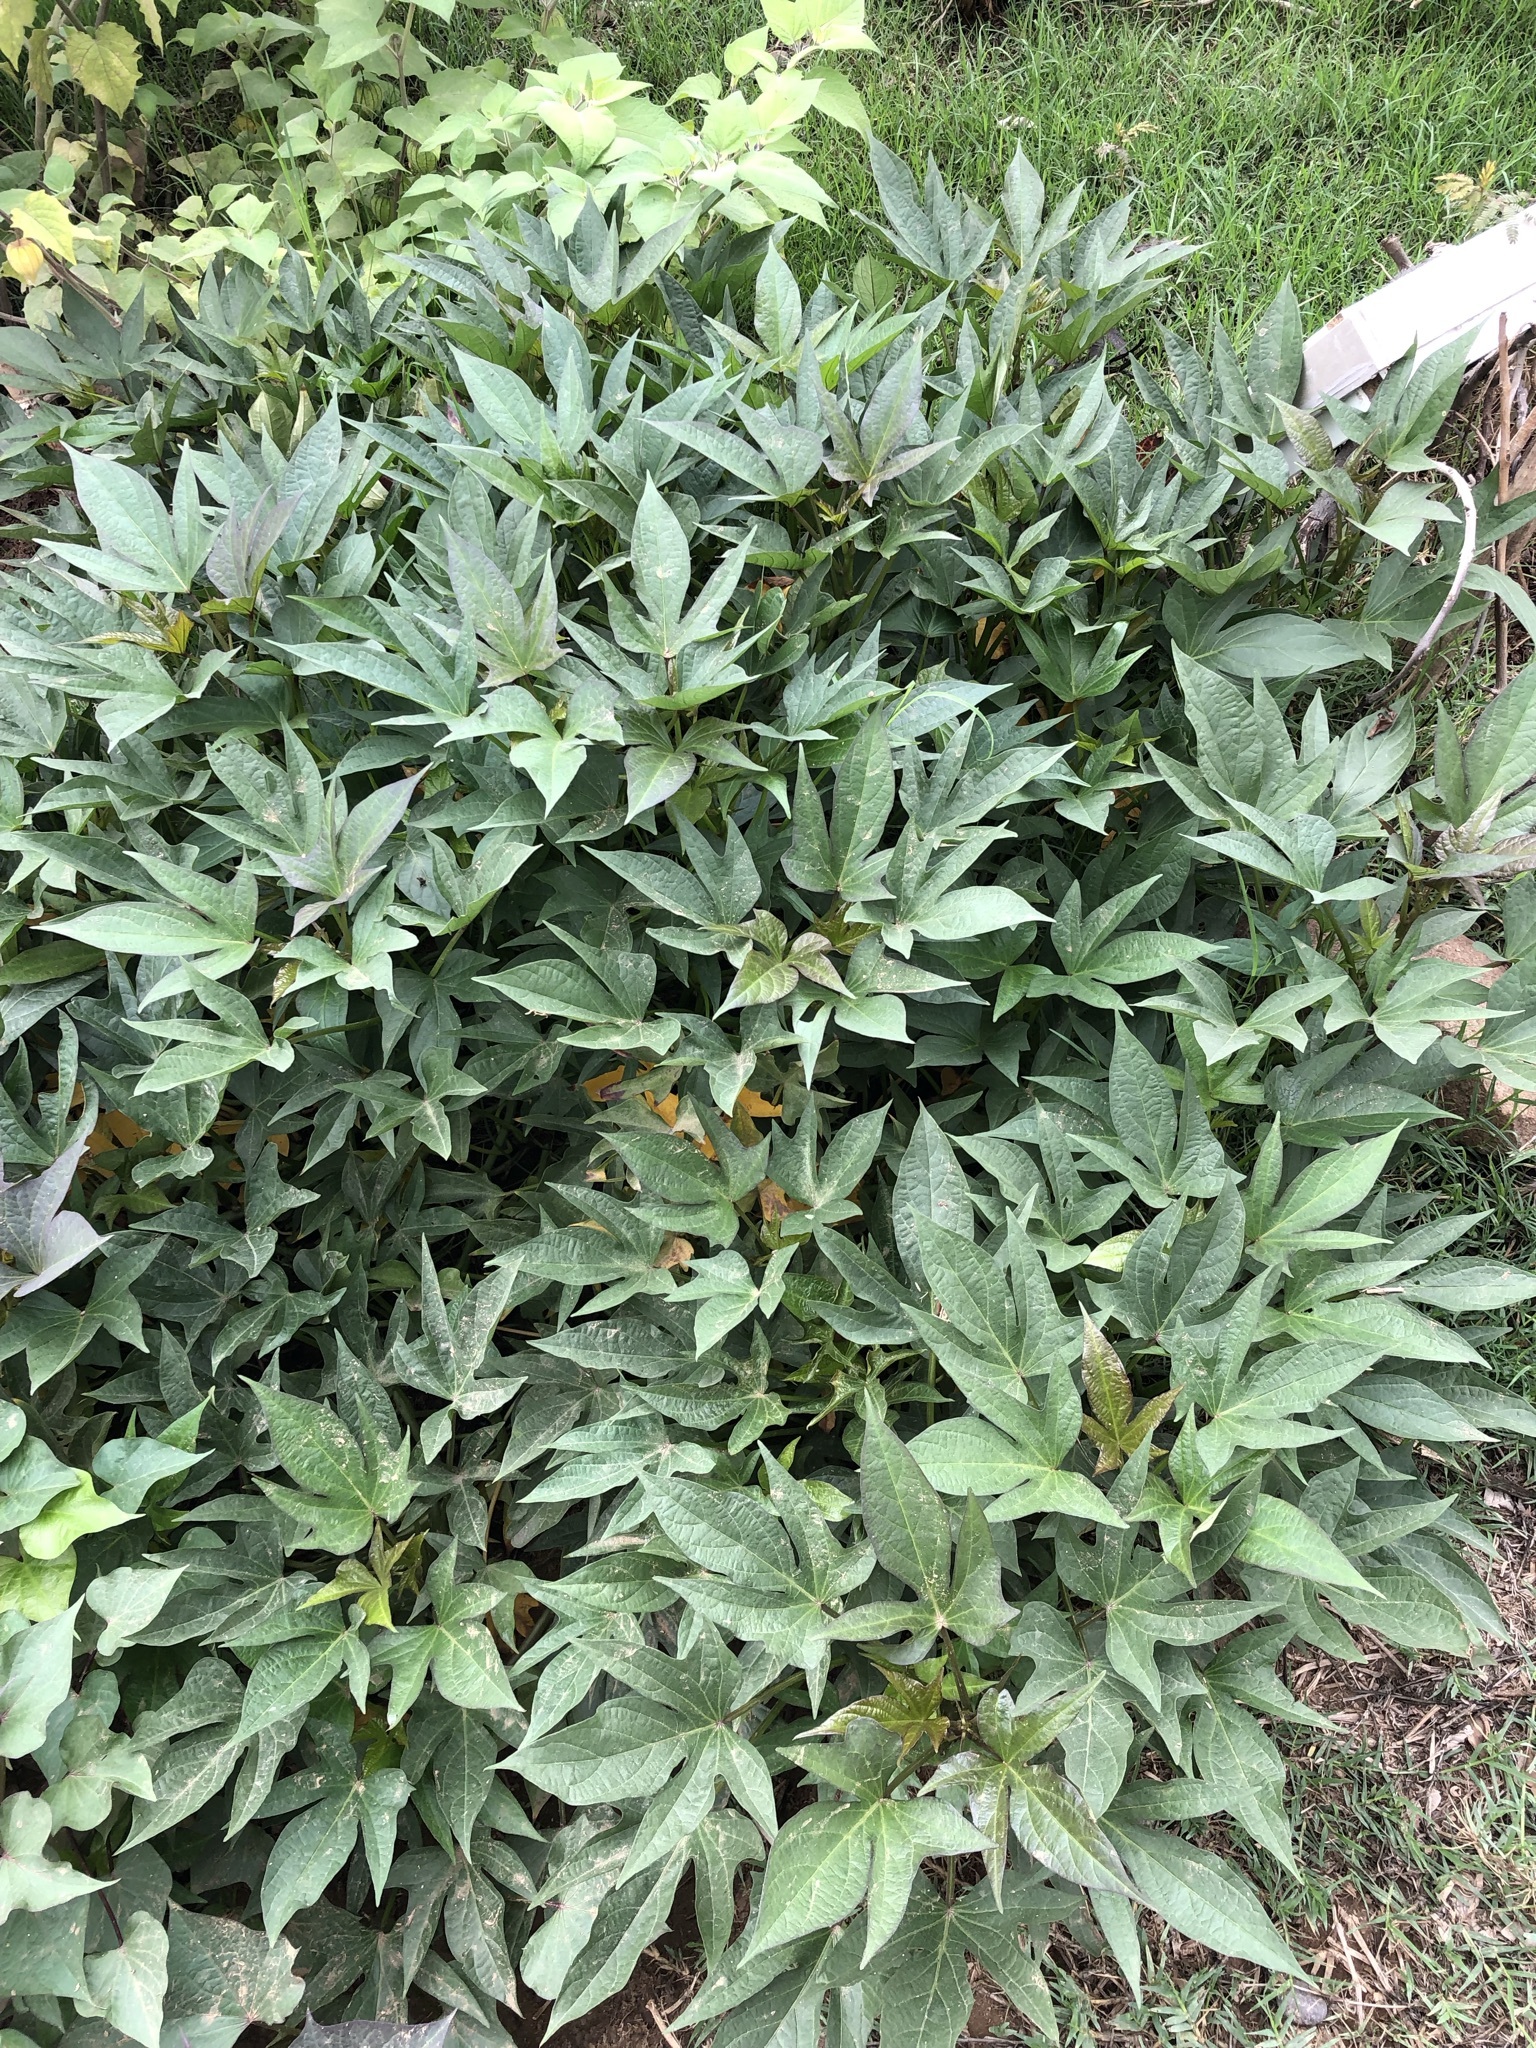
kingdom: Plantae
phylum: Tracheophyta
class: Magnoliopsida
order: Solanales
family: Convolvulaceae
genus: Ipomoea
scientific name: Ipomoea batatas
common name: Sweet-potato
